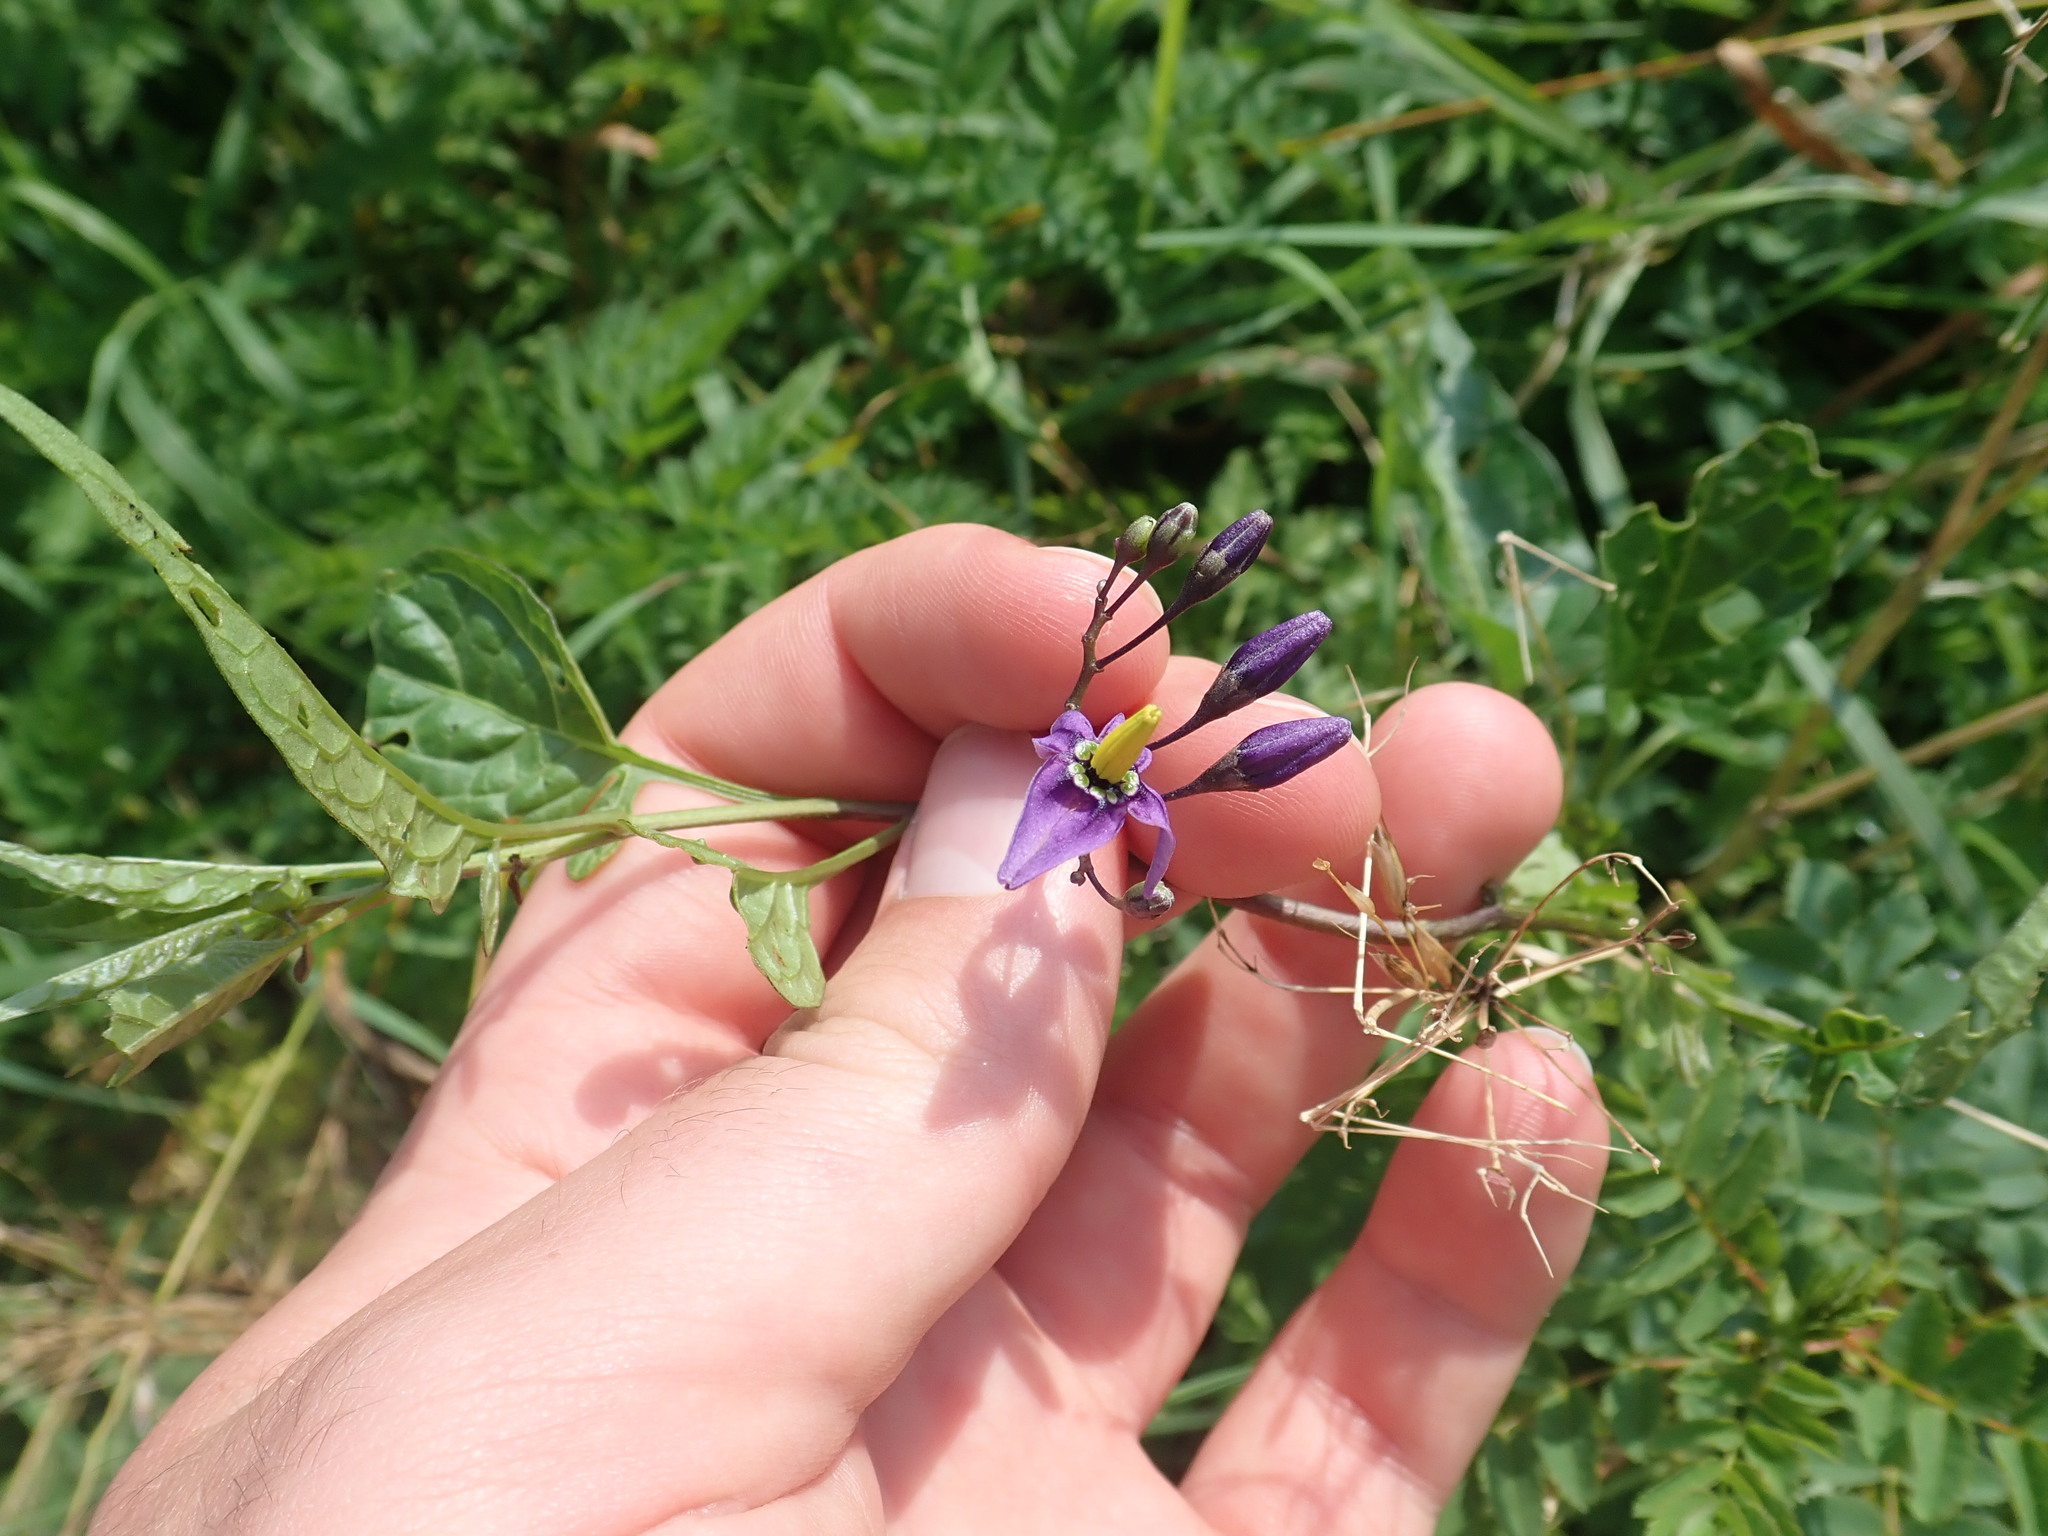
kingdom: Plantae
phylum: Tracheophyta
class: Magnoliopsida
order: Solanales
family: Solanaceae
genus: Solanum
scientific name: Solanum dulcamara
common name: Climbing nightshade
